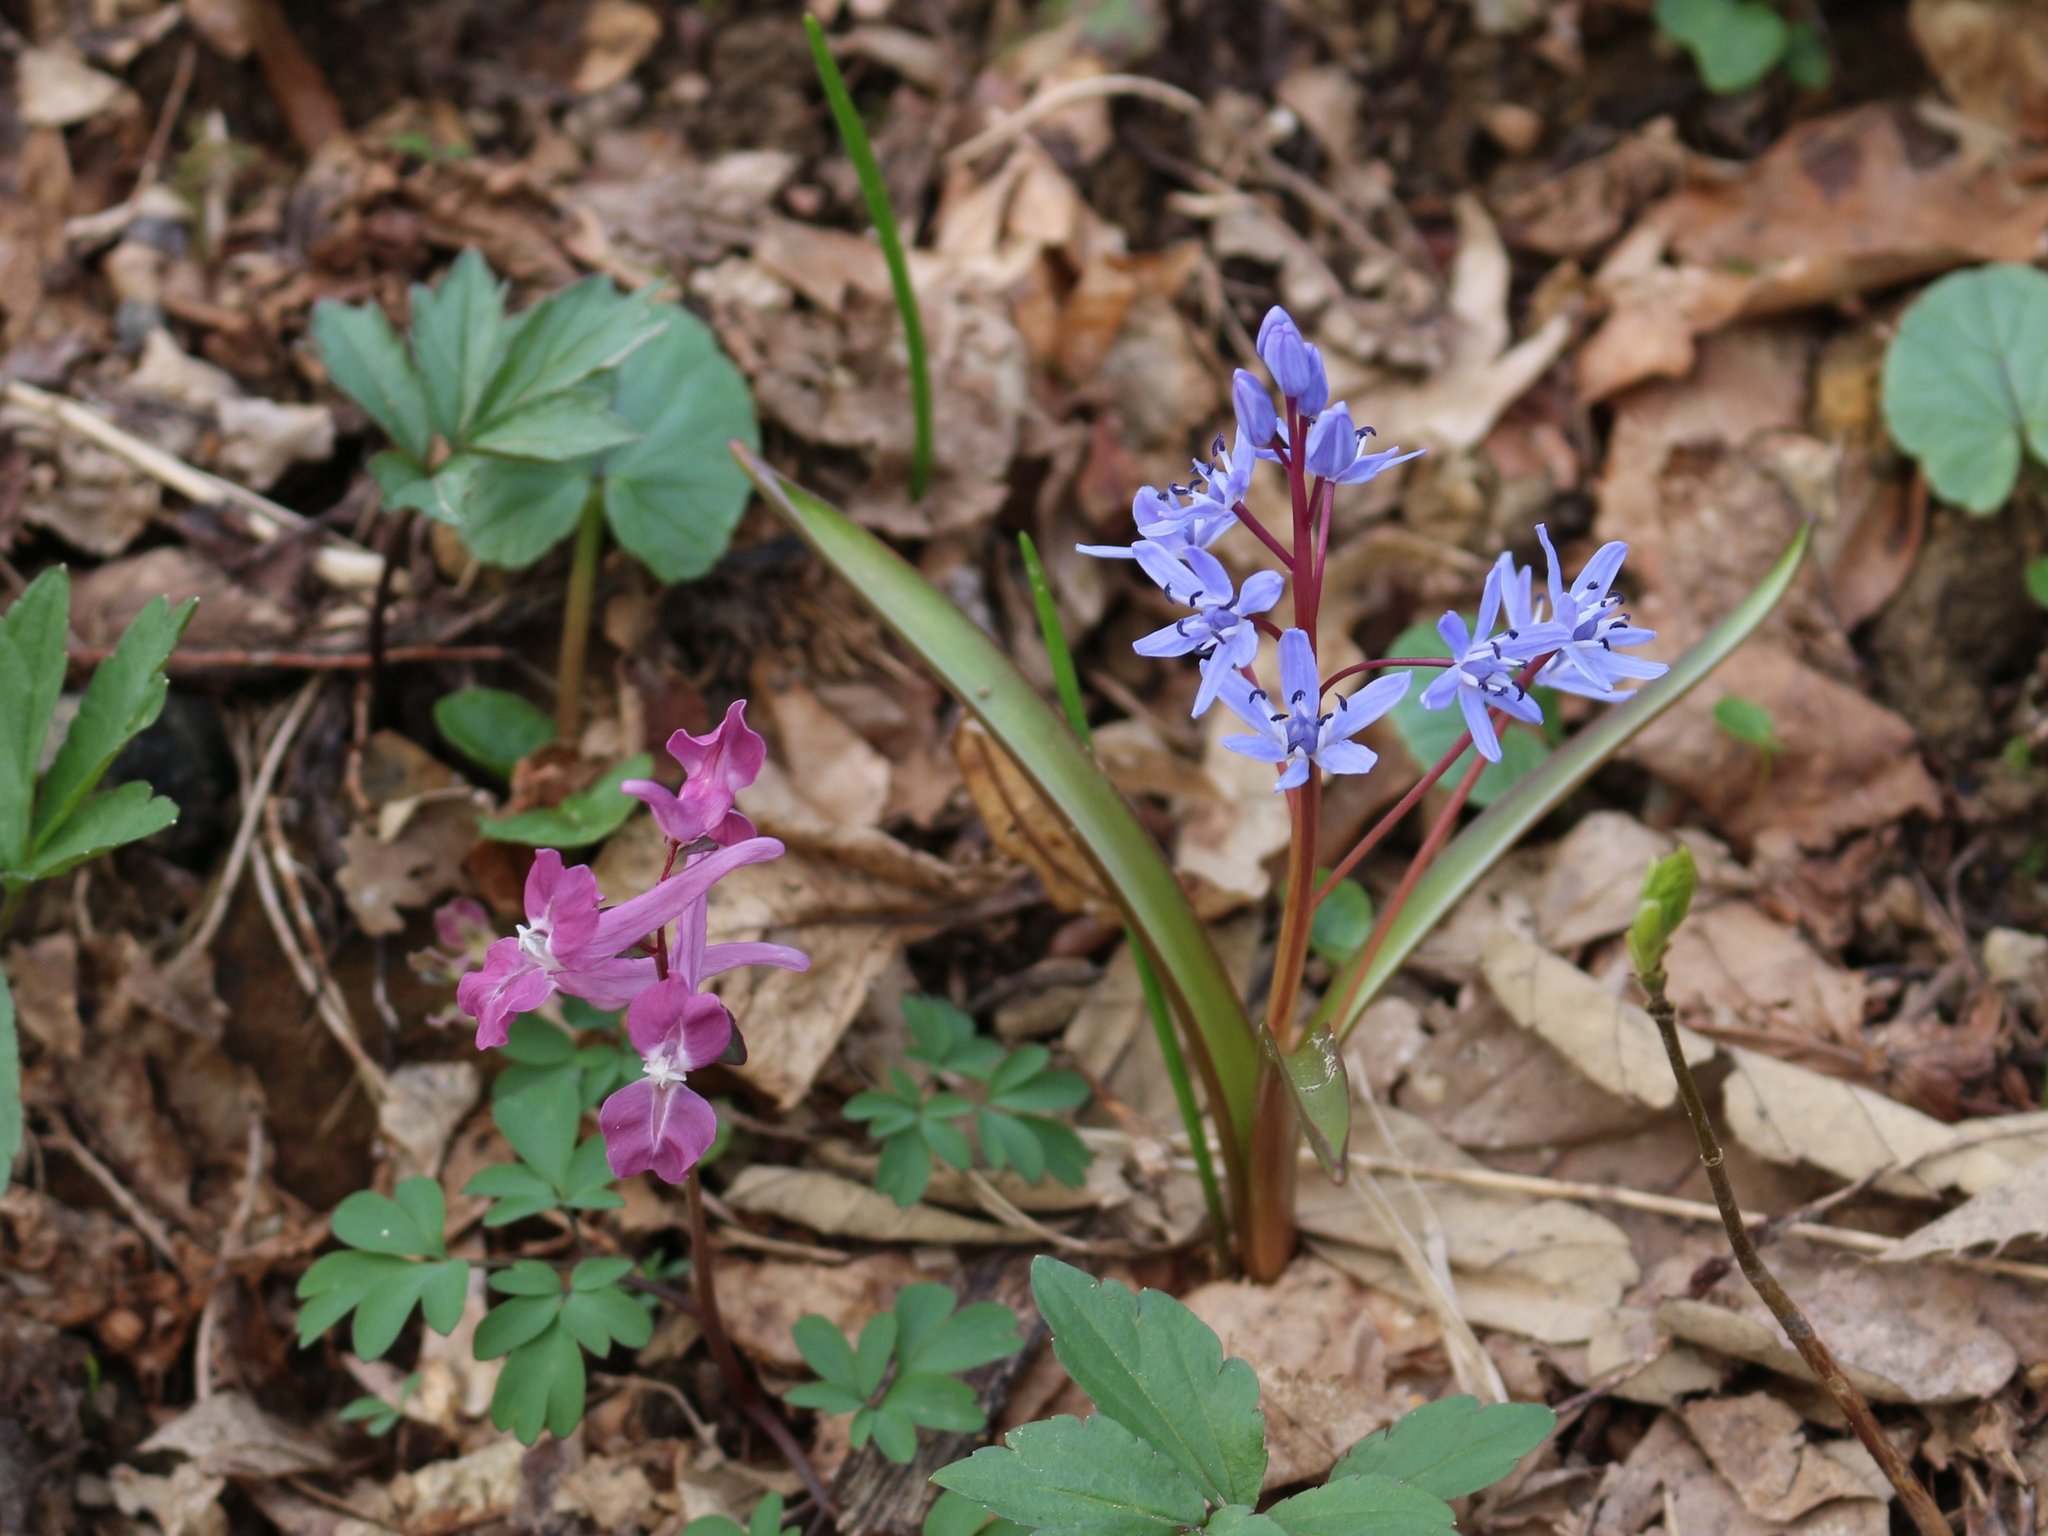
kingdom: Plantae
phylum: Tracheophyta
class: Magnoliopsida
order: Ranunculales
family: Papaveraceae
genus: Corydalis
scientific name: Corydalis caucasica
